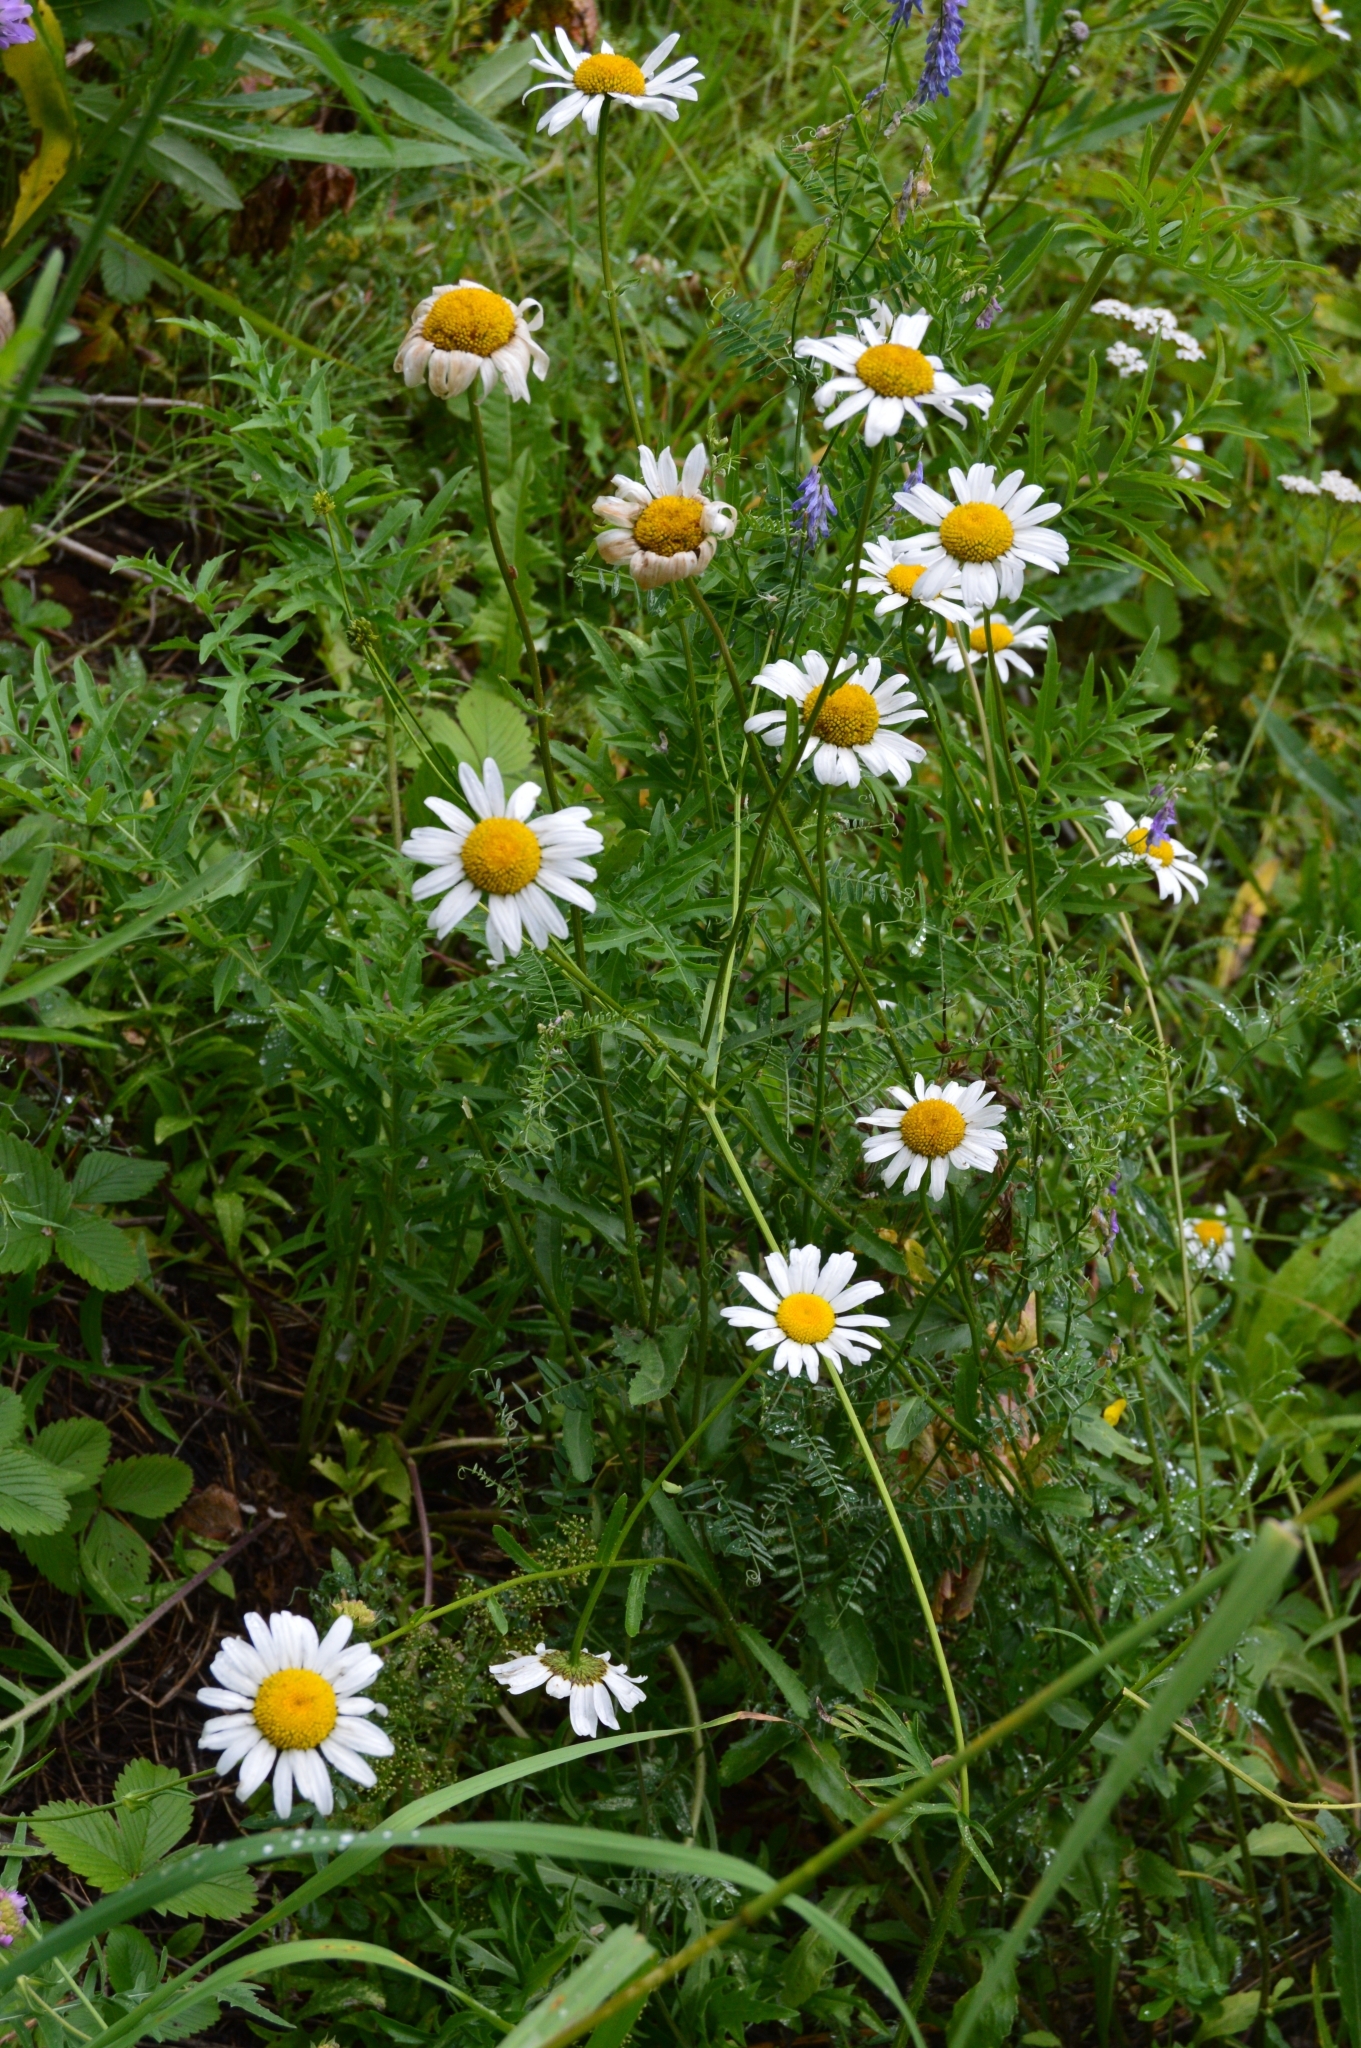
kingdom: Plantae
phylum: Tracheophyta
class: Magnoliopsida
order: Asterales
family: Asteraceae
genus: Leucanthemum
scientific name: Leucanthemum vulgare
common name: Oxeye daisy
